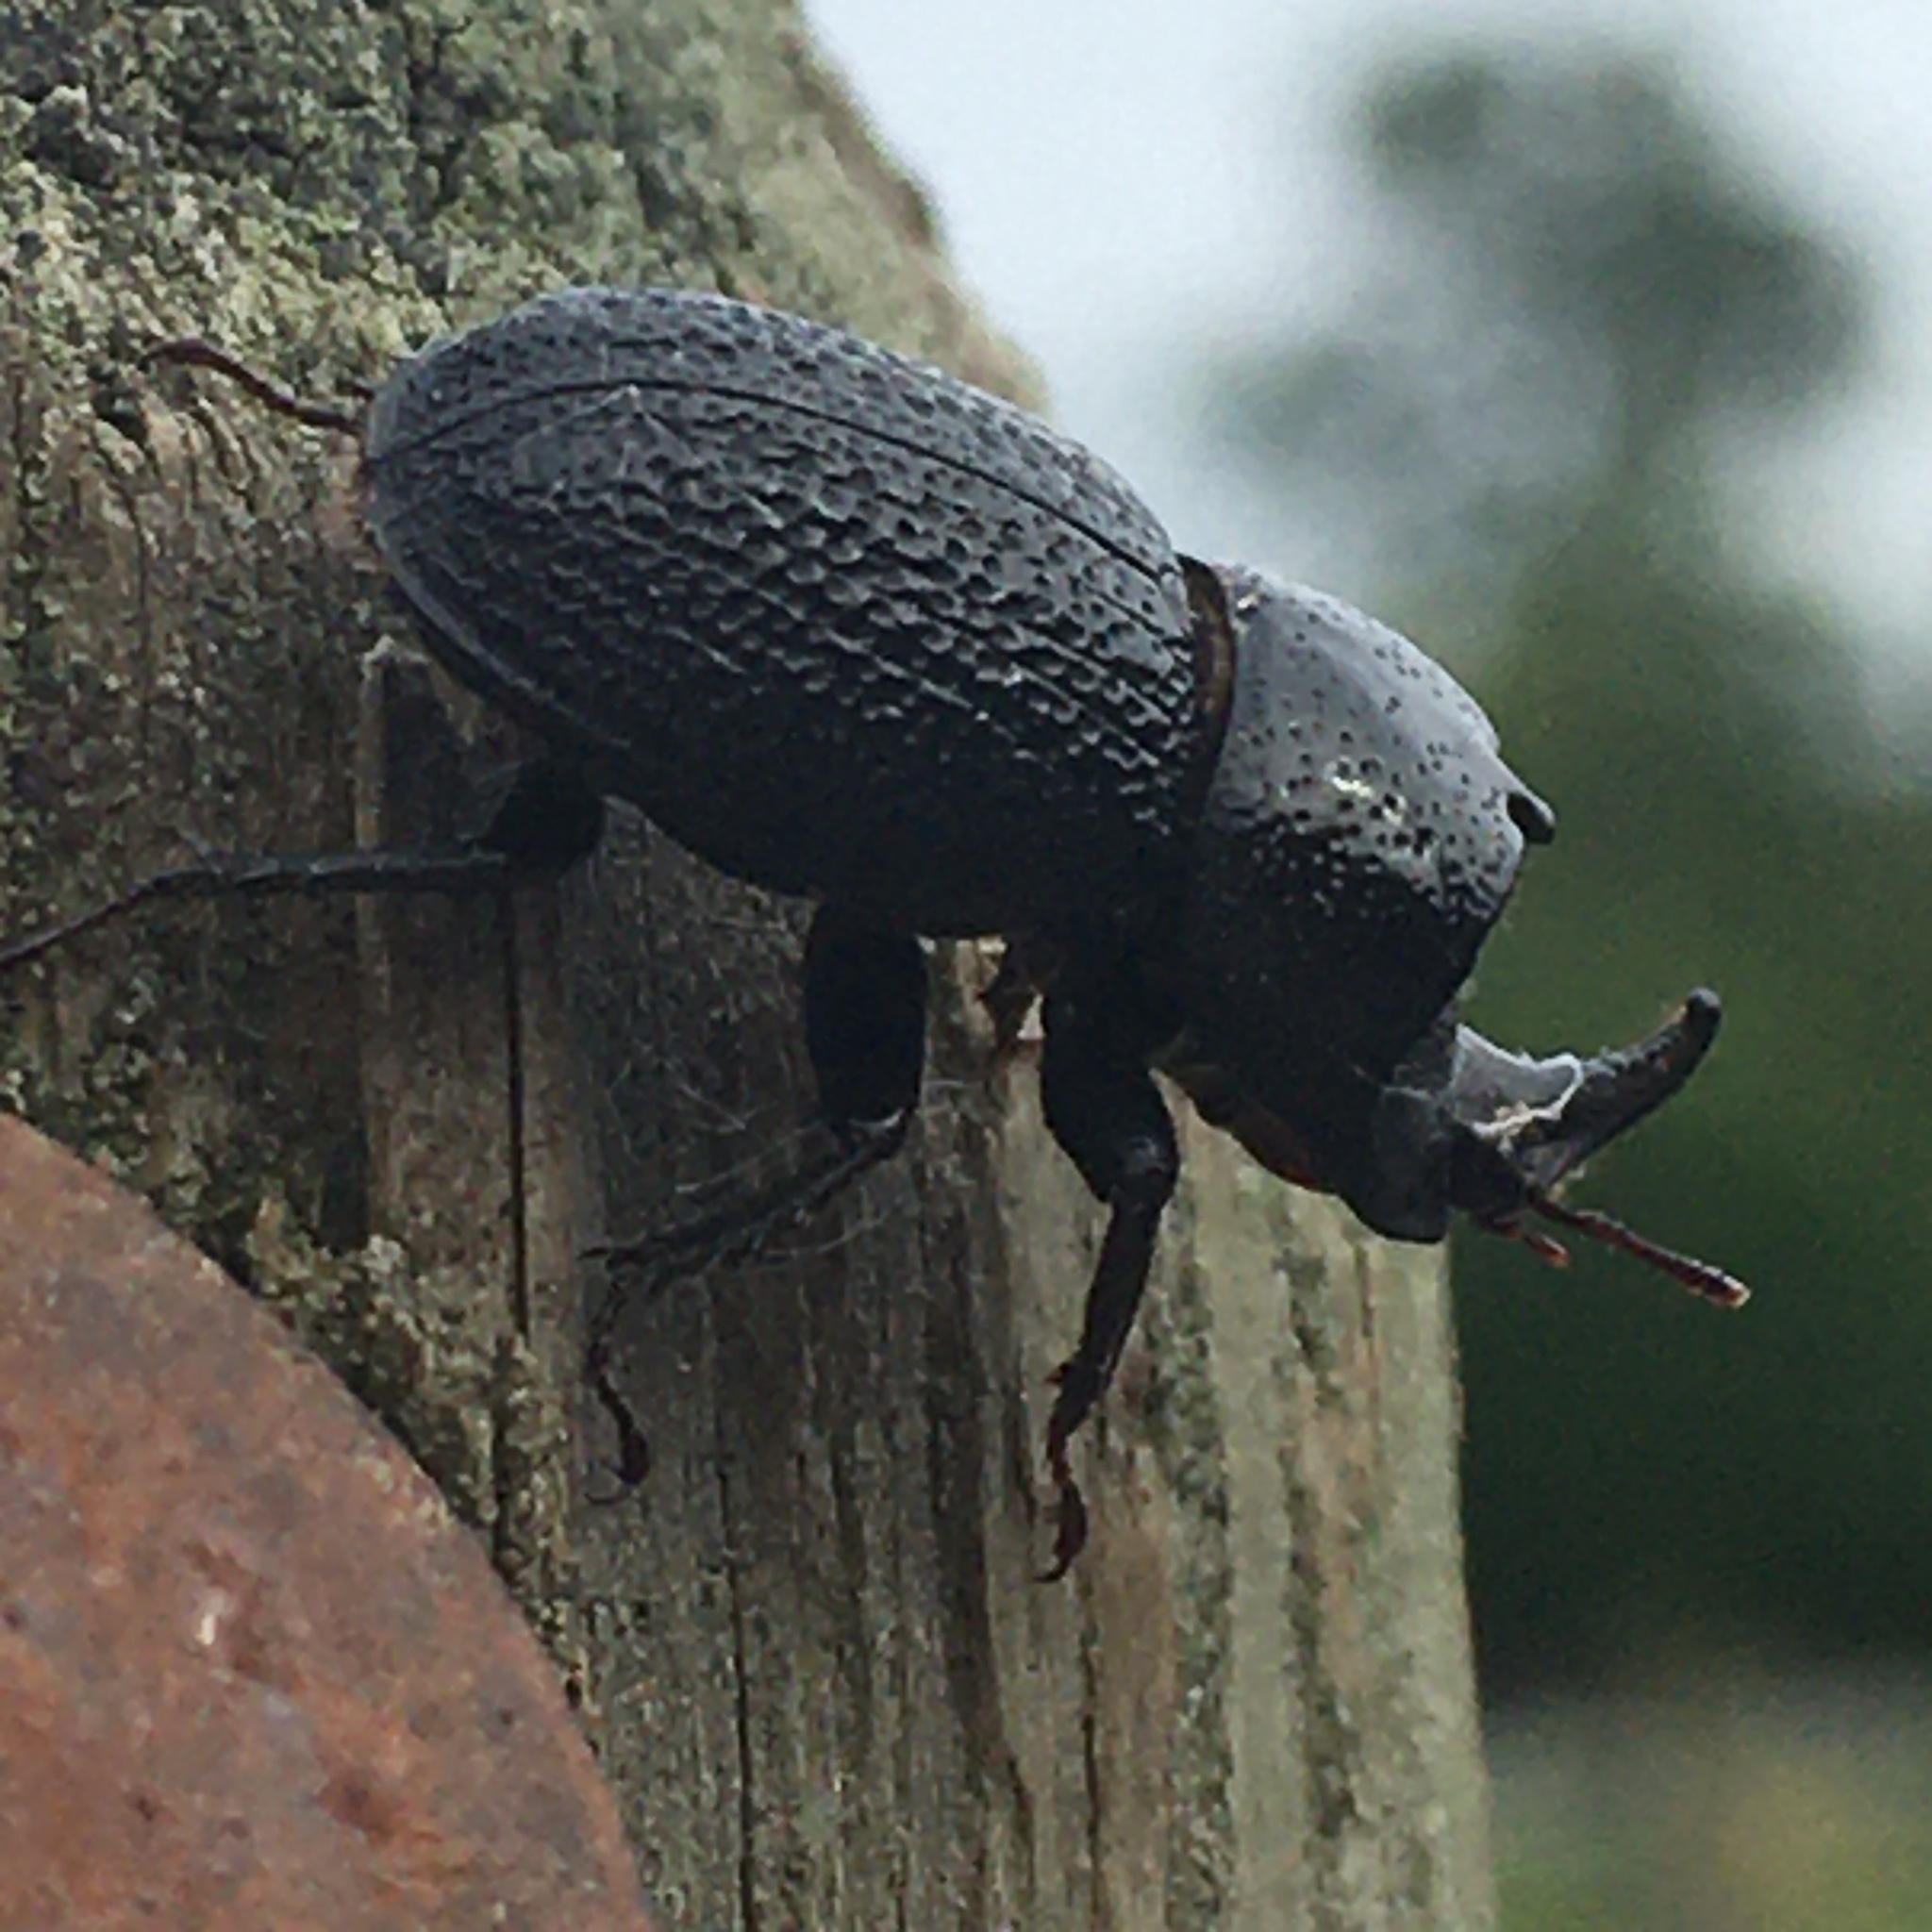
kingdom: Animalia
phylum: Arthropoda
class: Insecta
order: Coleoptera
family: Lucanidae
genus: Sinodendron
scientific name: Sinodendron rugosum
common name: Rugose stag beelte
